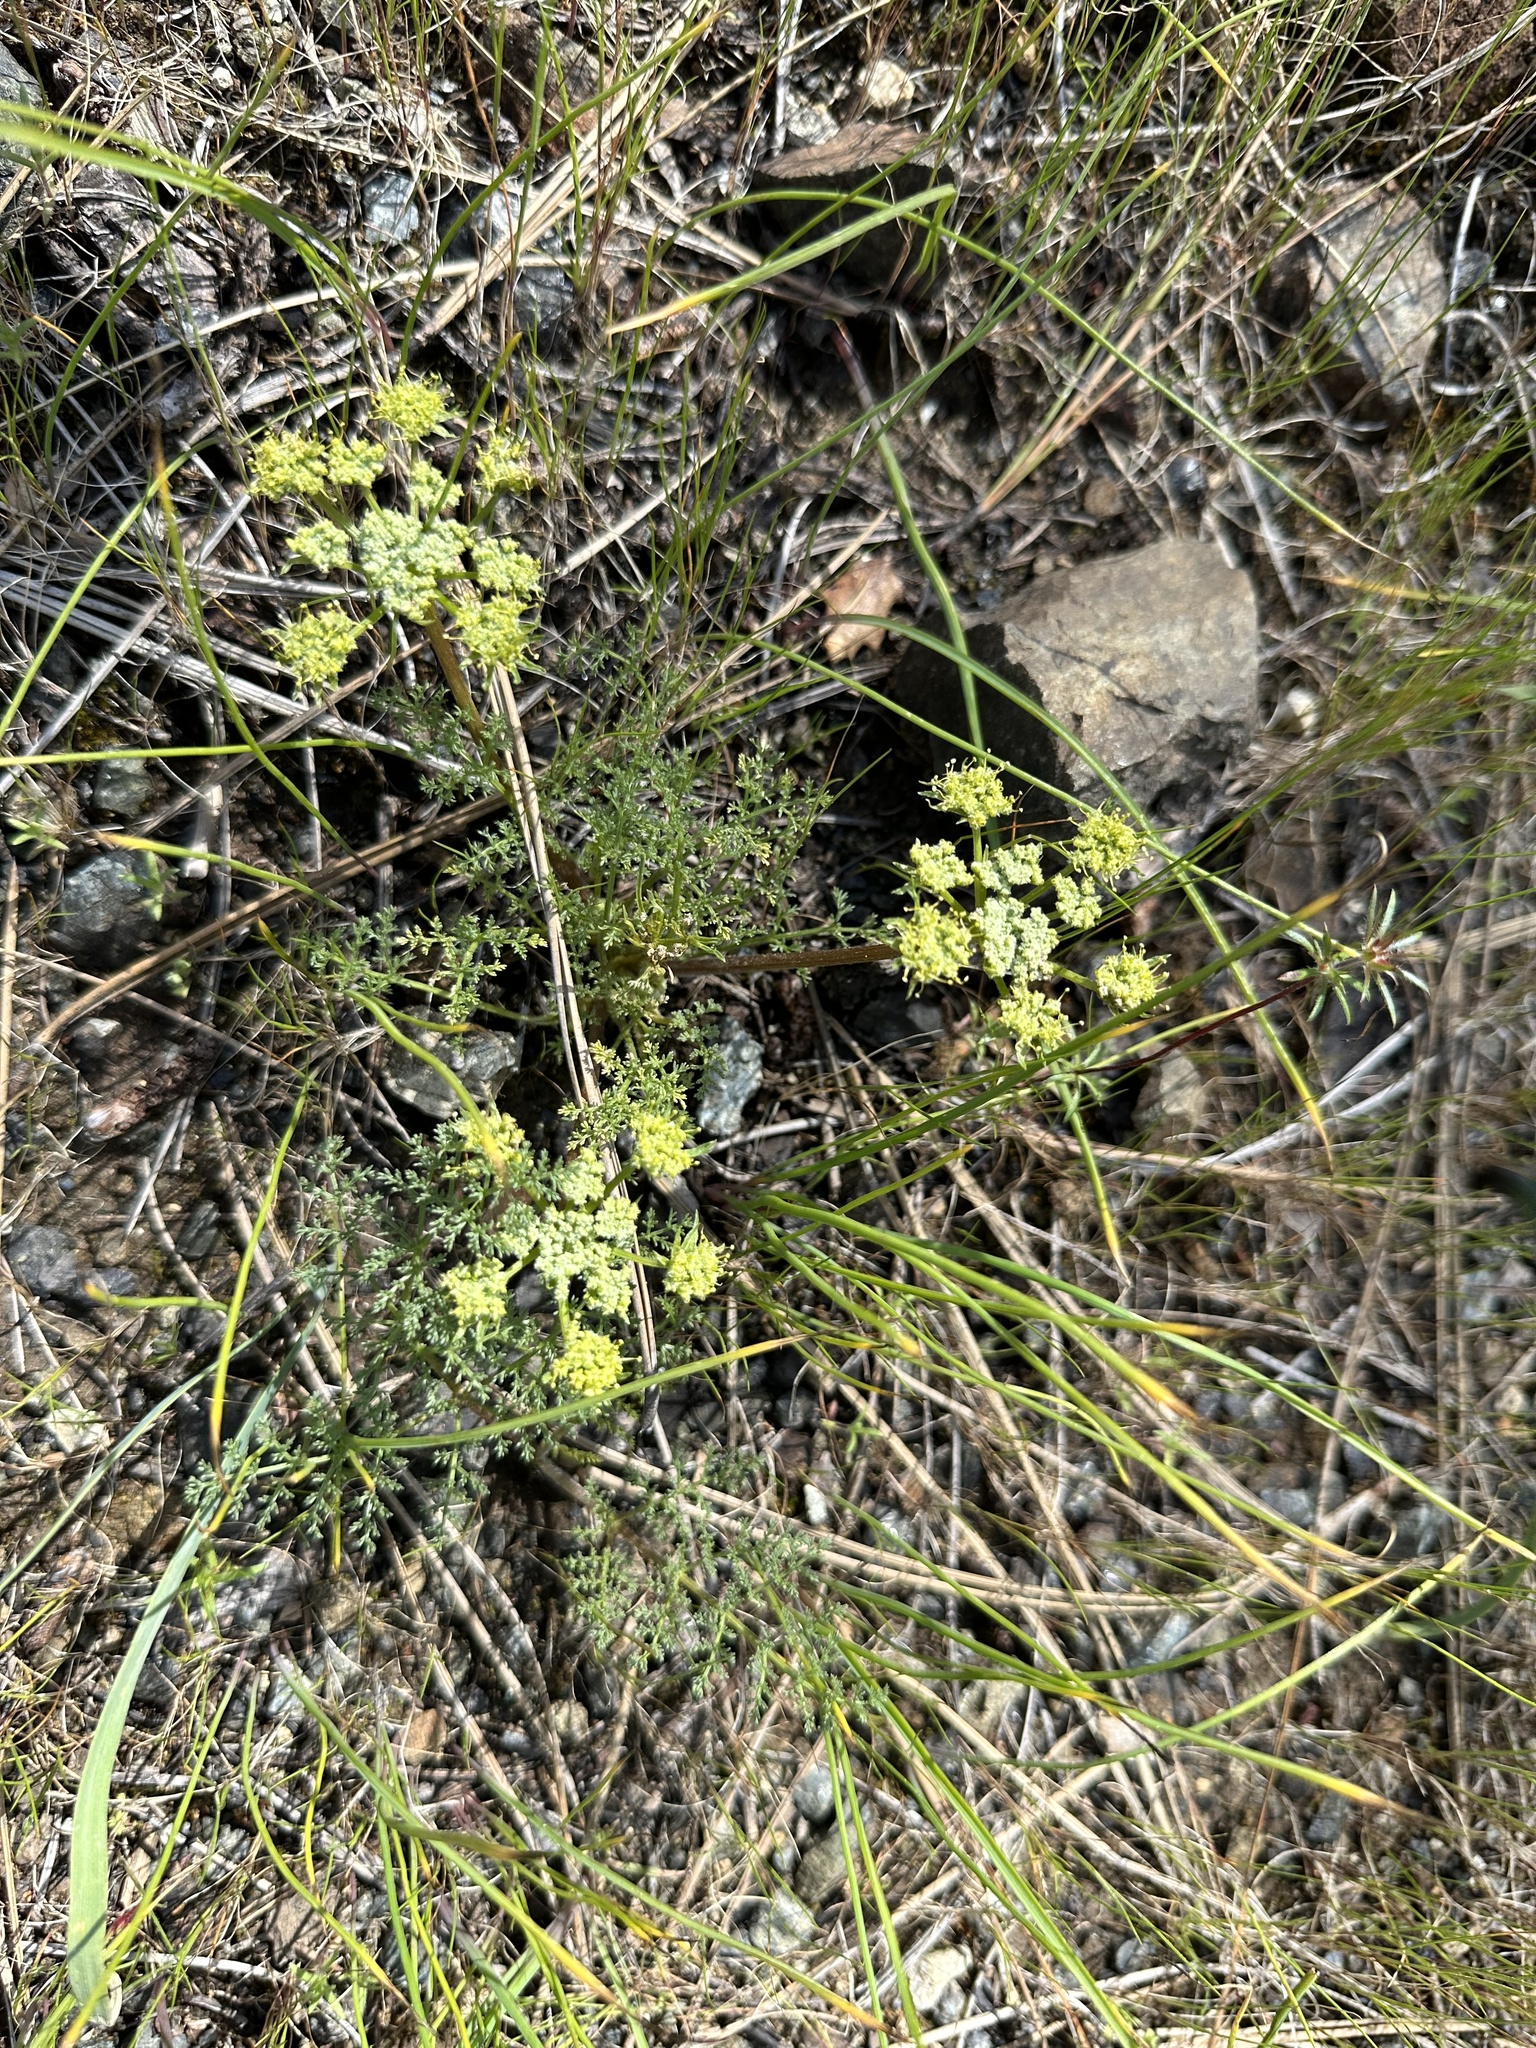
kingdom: Plantae
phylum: Tracheophyta
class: Magnoliopsida
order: Apiales
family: Apiaceae
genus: Lomatium
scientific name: Lomatium dasycarpum
